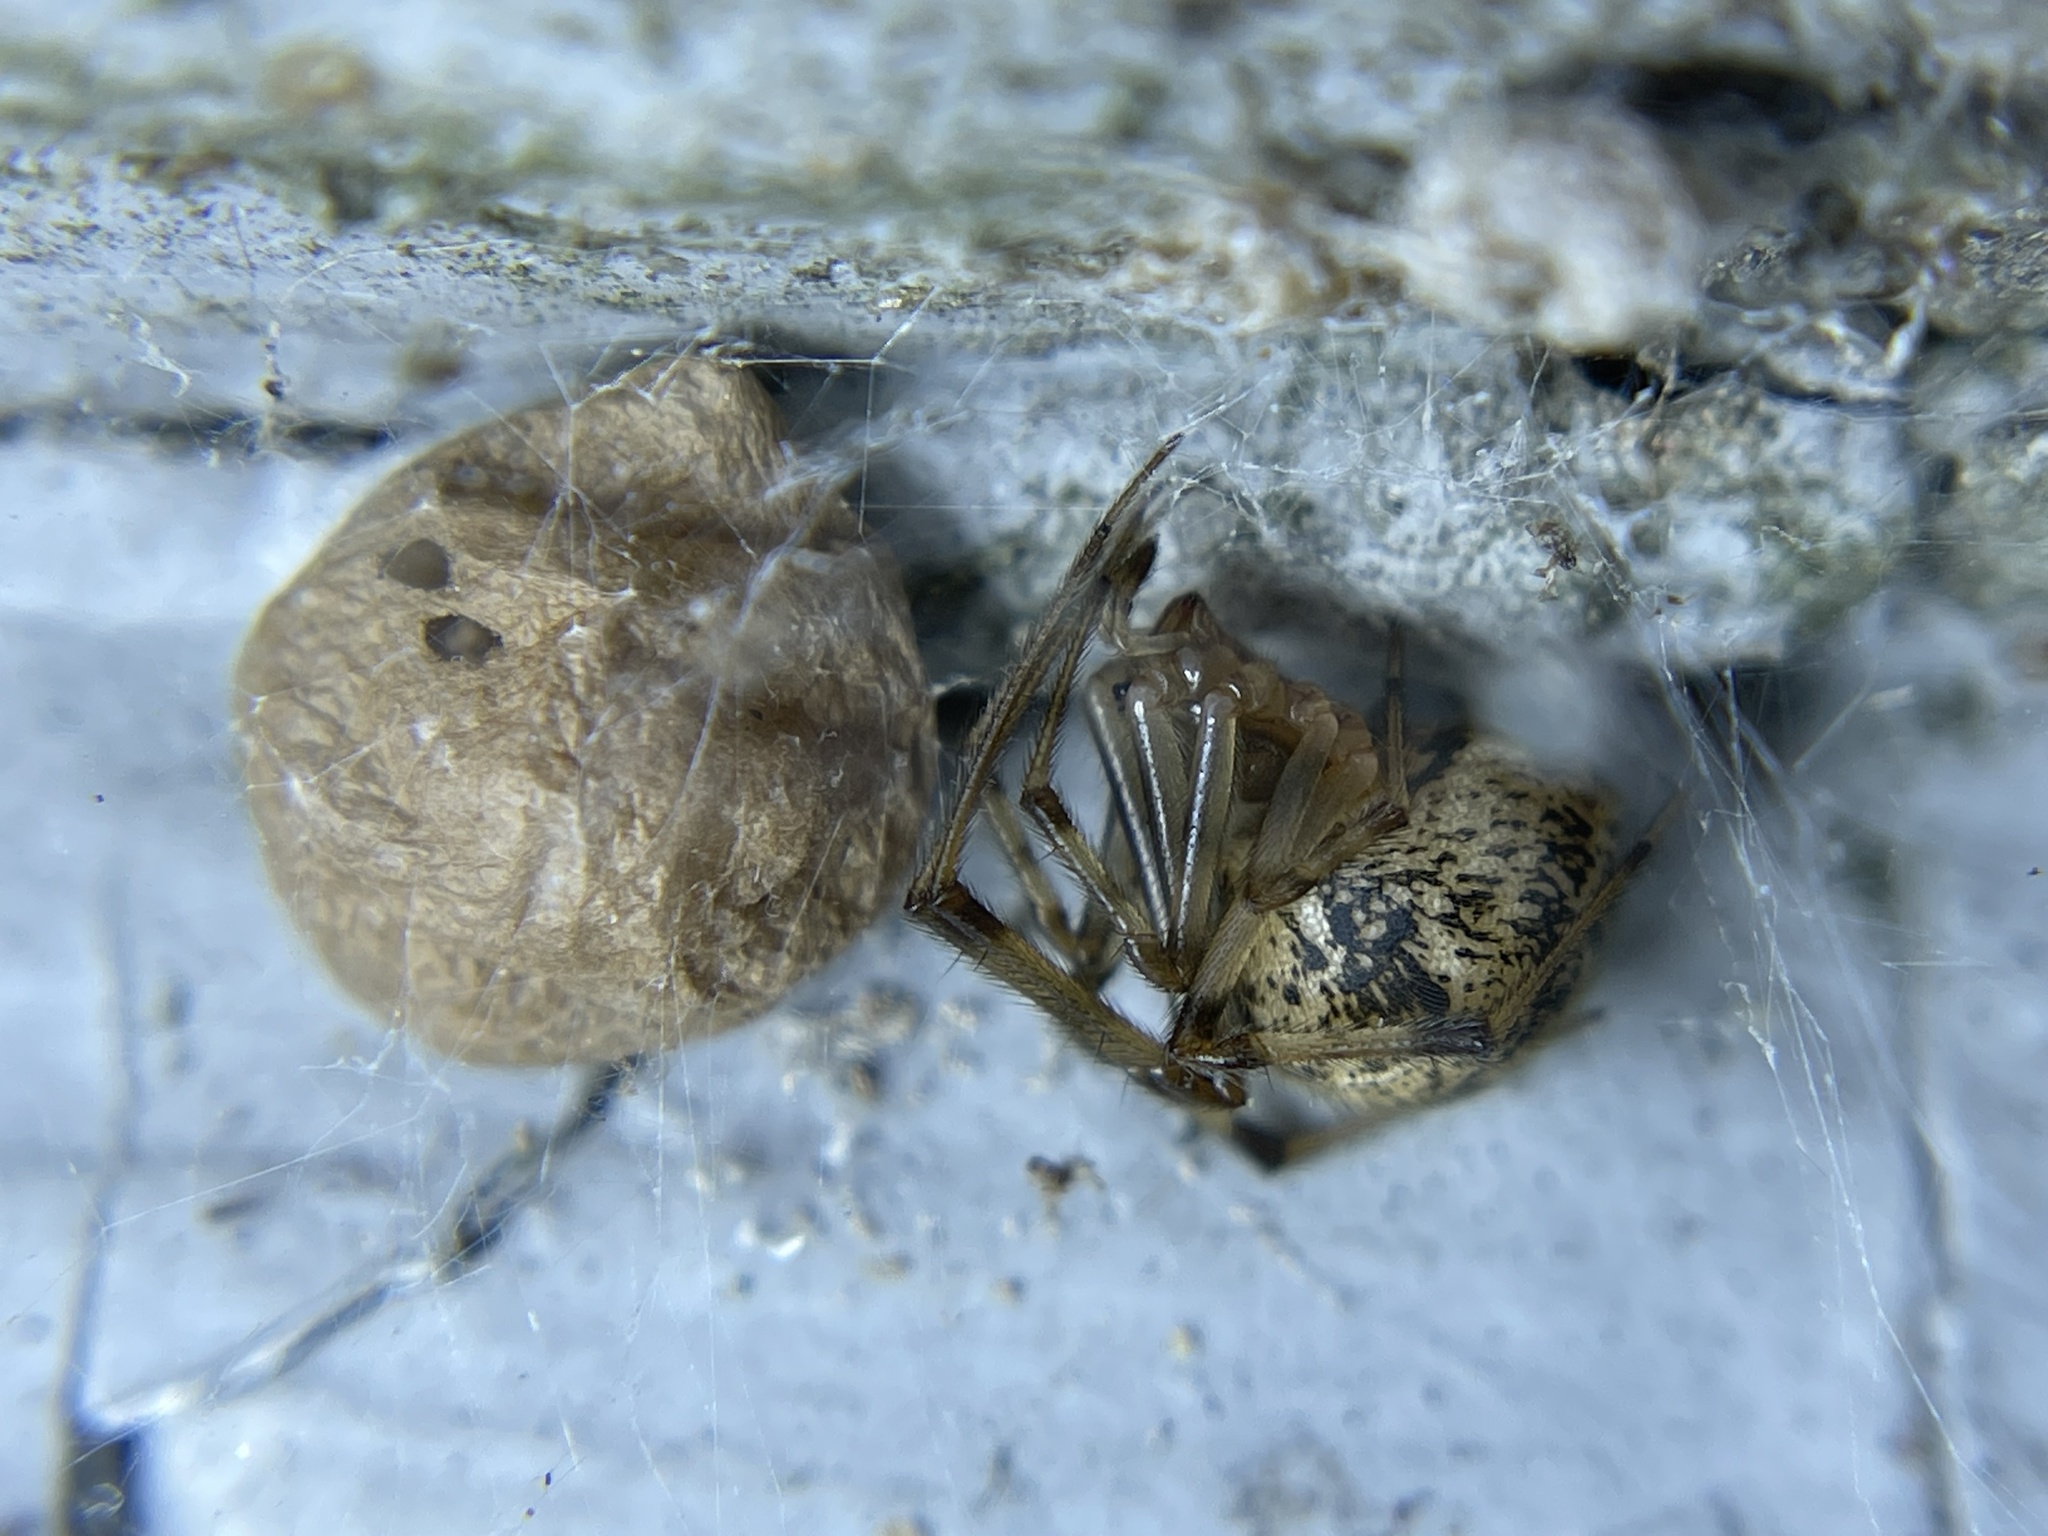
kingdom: Animalia
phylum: Arthropoda
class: Arachnida
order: Araneae
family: Theridiidae
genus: Parasteatoda
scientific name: Parasteatoda tepidariorum
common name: Common house spider
